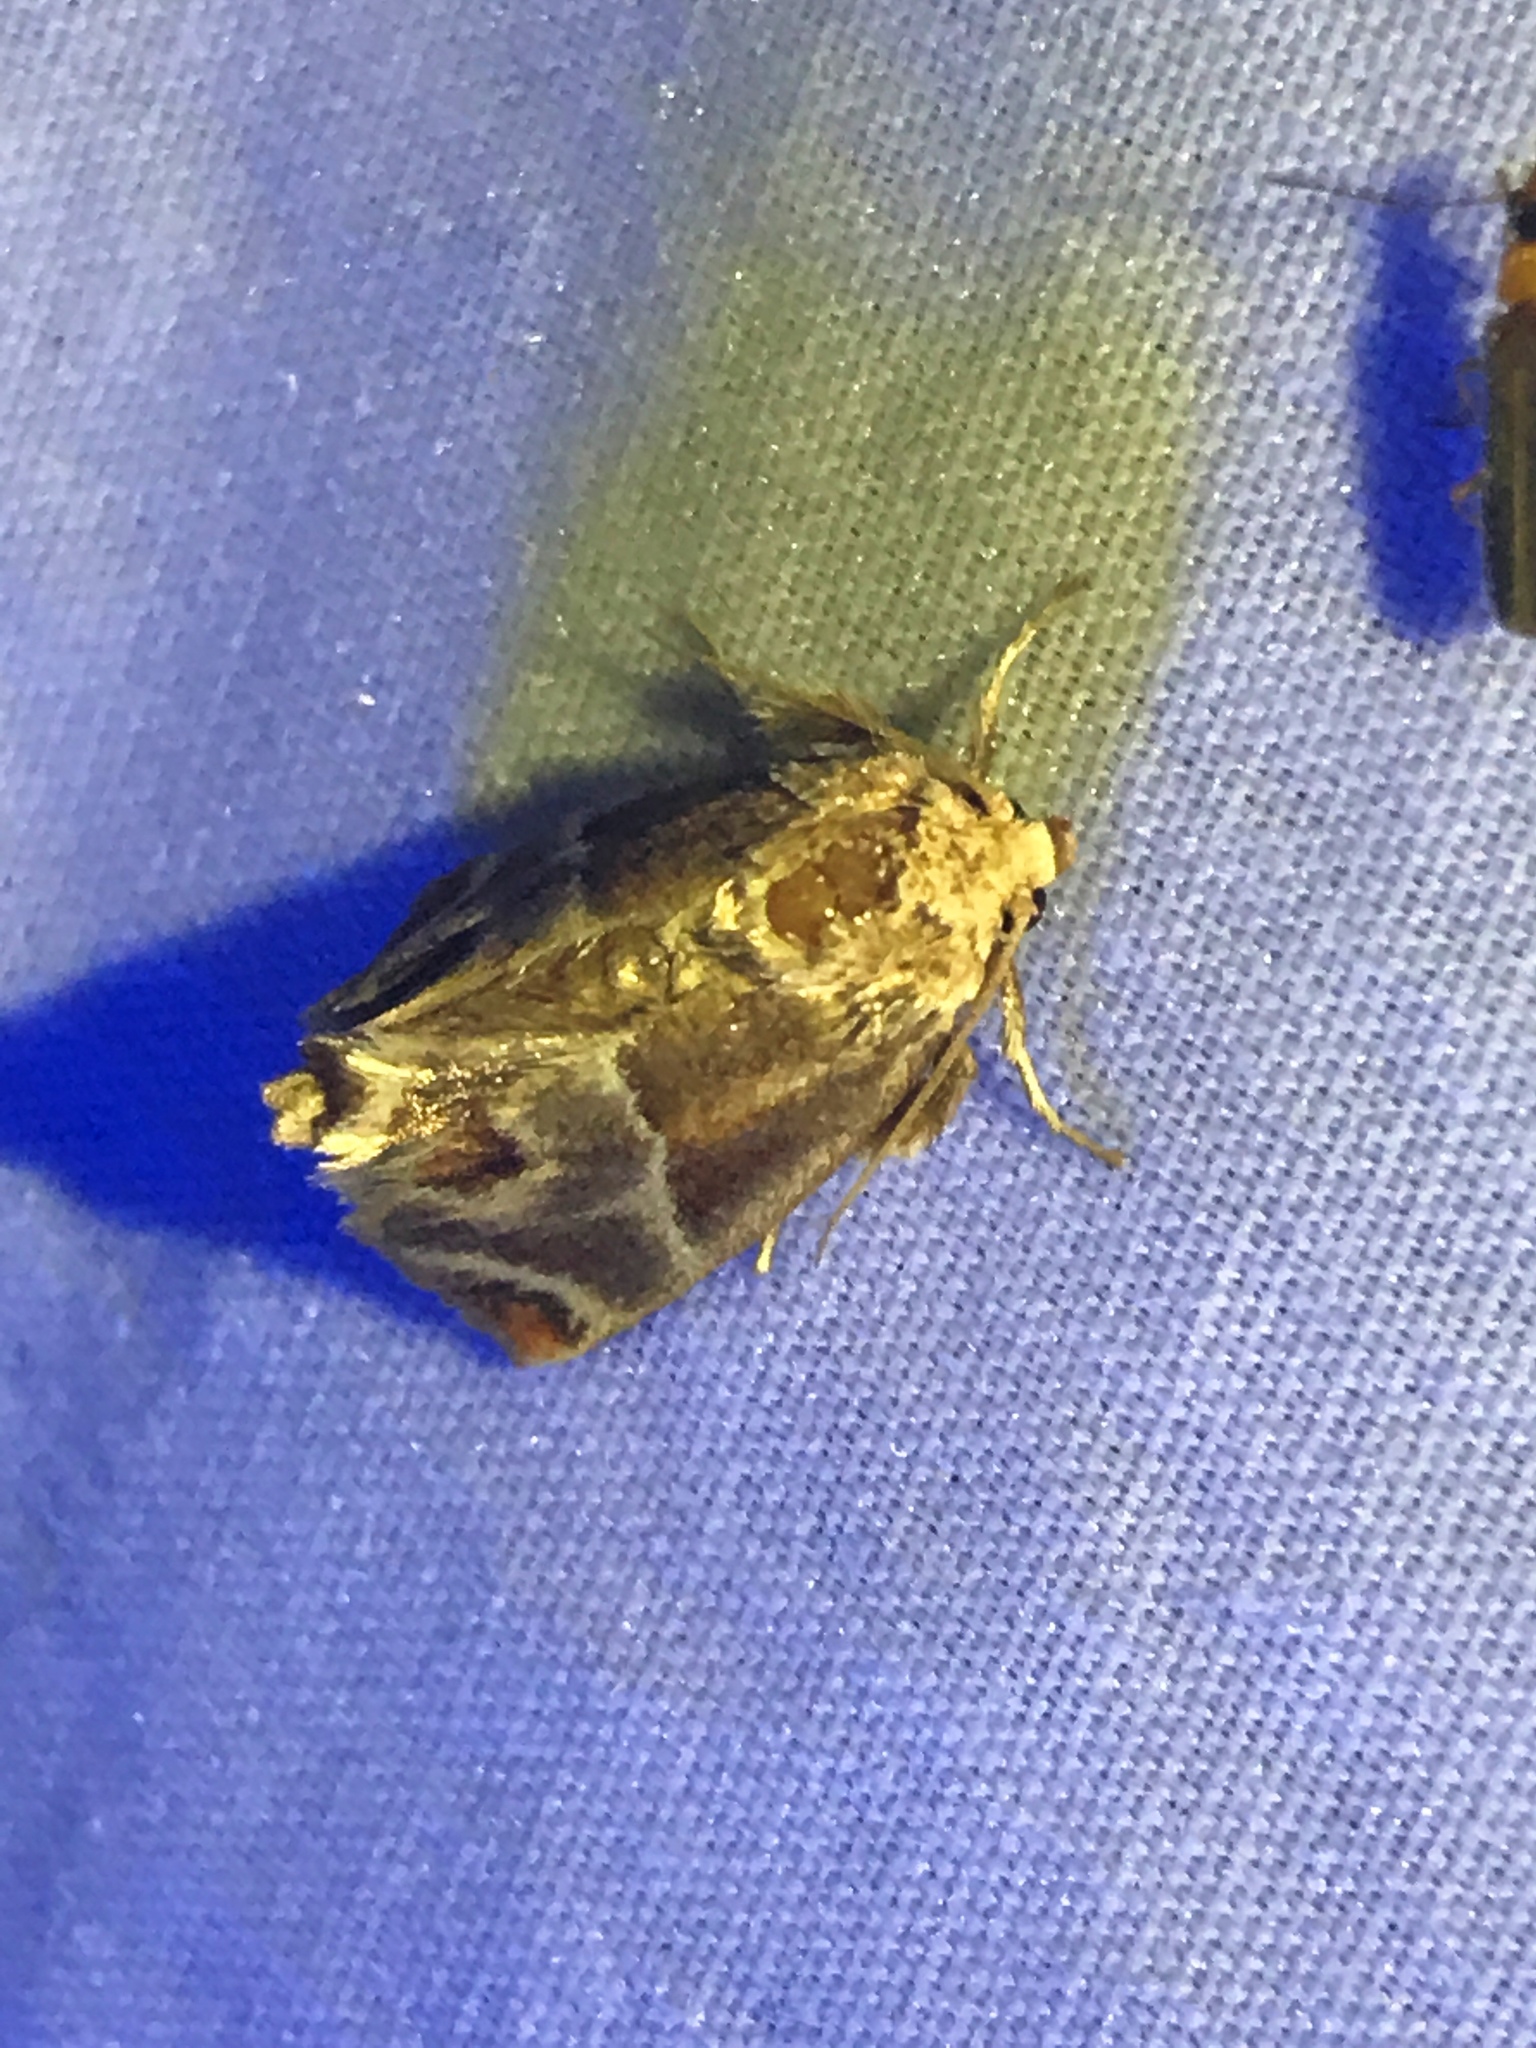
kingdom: Animalia
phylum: Arthropoda
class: Insecta
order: Lepidoptera
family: Limacodidae
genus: Apoda
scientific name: Apoda biguttata
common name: Shagreened slug moth
